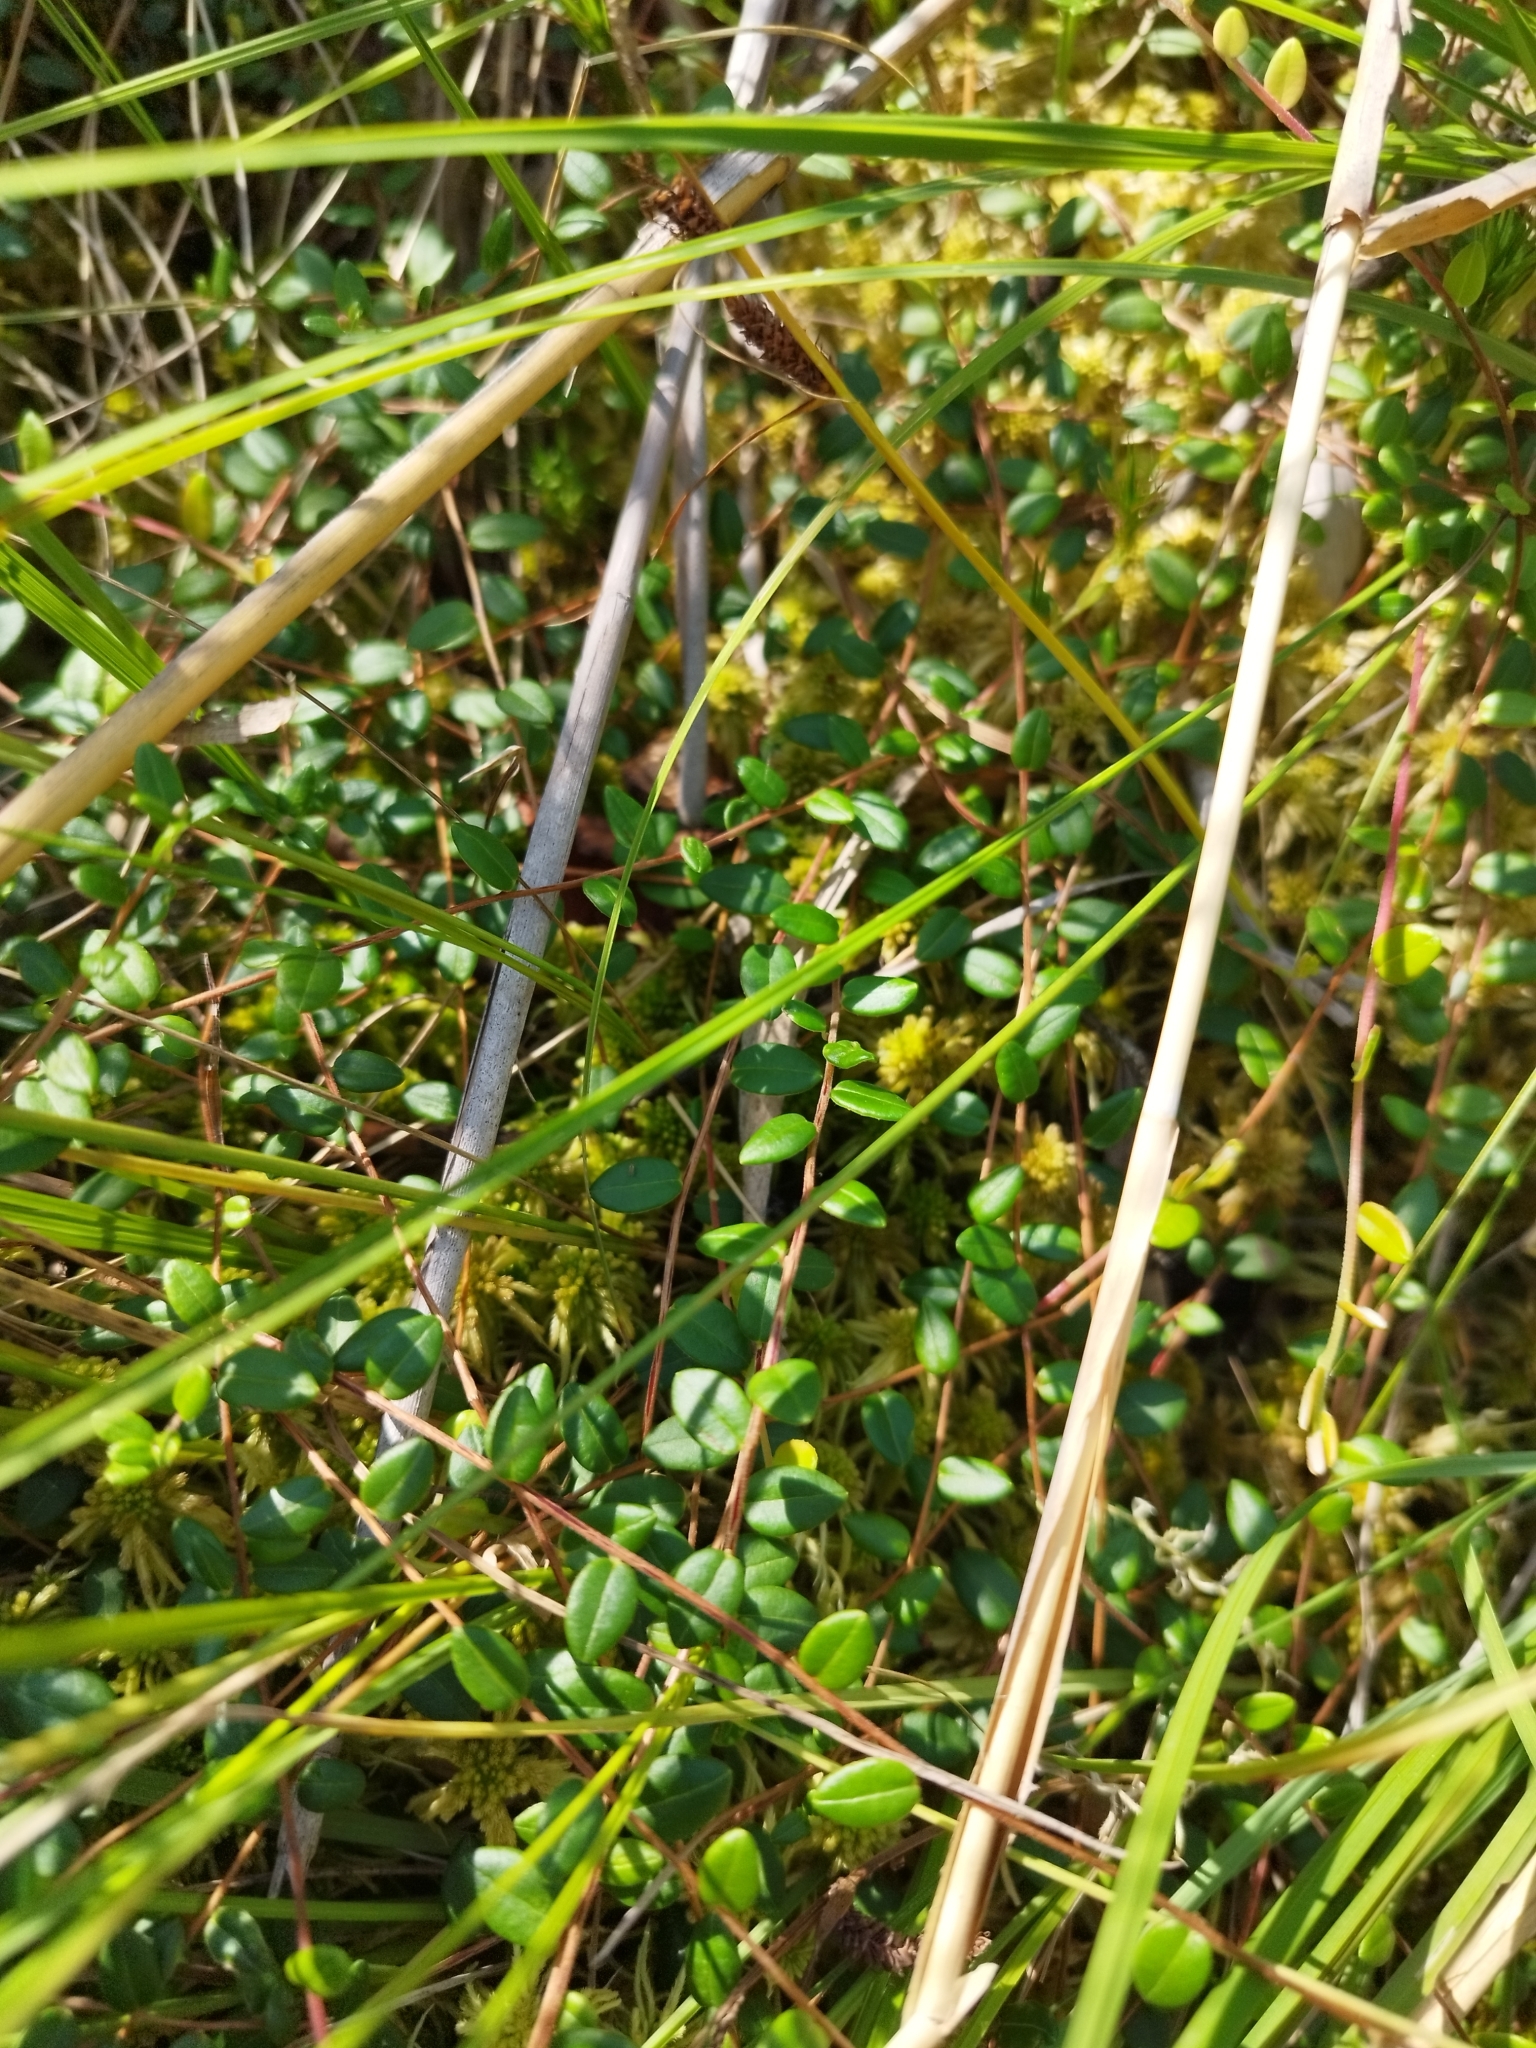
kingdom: Plantae
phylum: Tracheophyta
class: Magnoliopsida
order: Ericales
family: Ericaceae
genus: Vaccinium
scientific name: Vaccinium oxycoccos
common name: Cranberry
